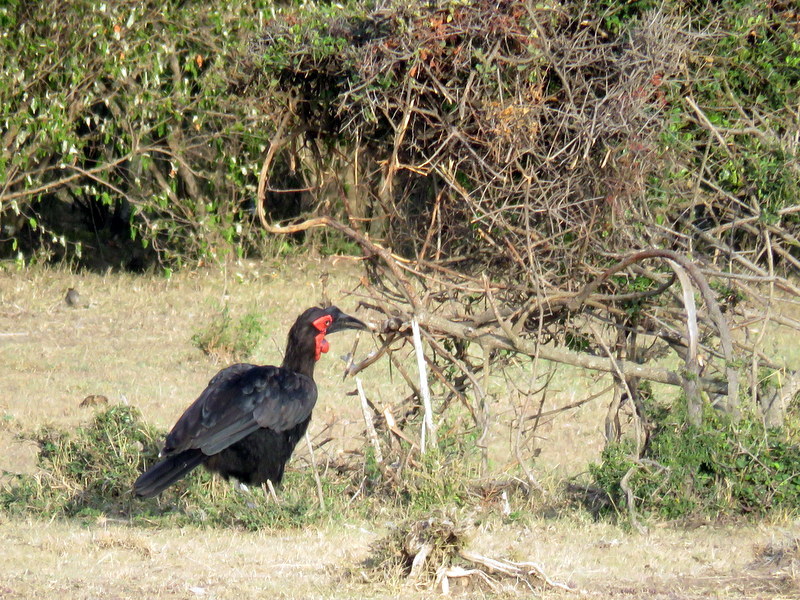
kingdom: Animalia
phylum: Chordata
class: Aves
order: Bucerotiformes
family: Bucorvidae
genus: Bucorvus
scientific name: Bucorvus leadbeateri
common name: Southern ground-hornbill
